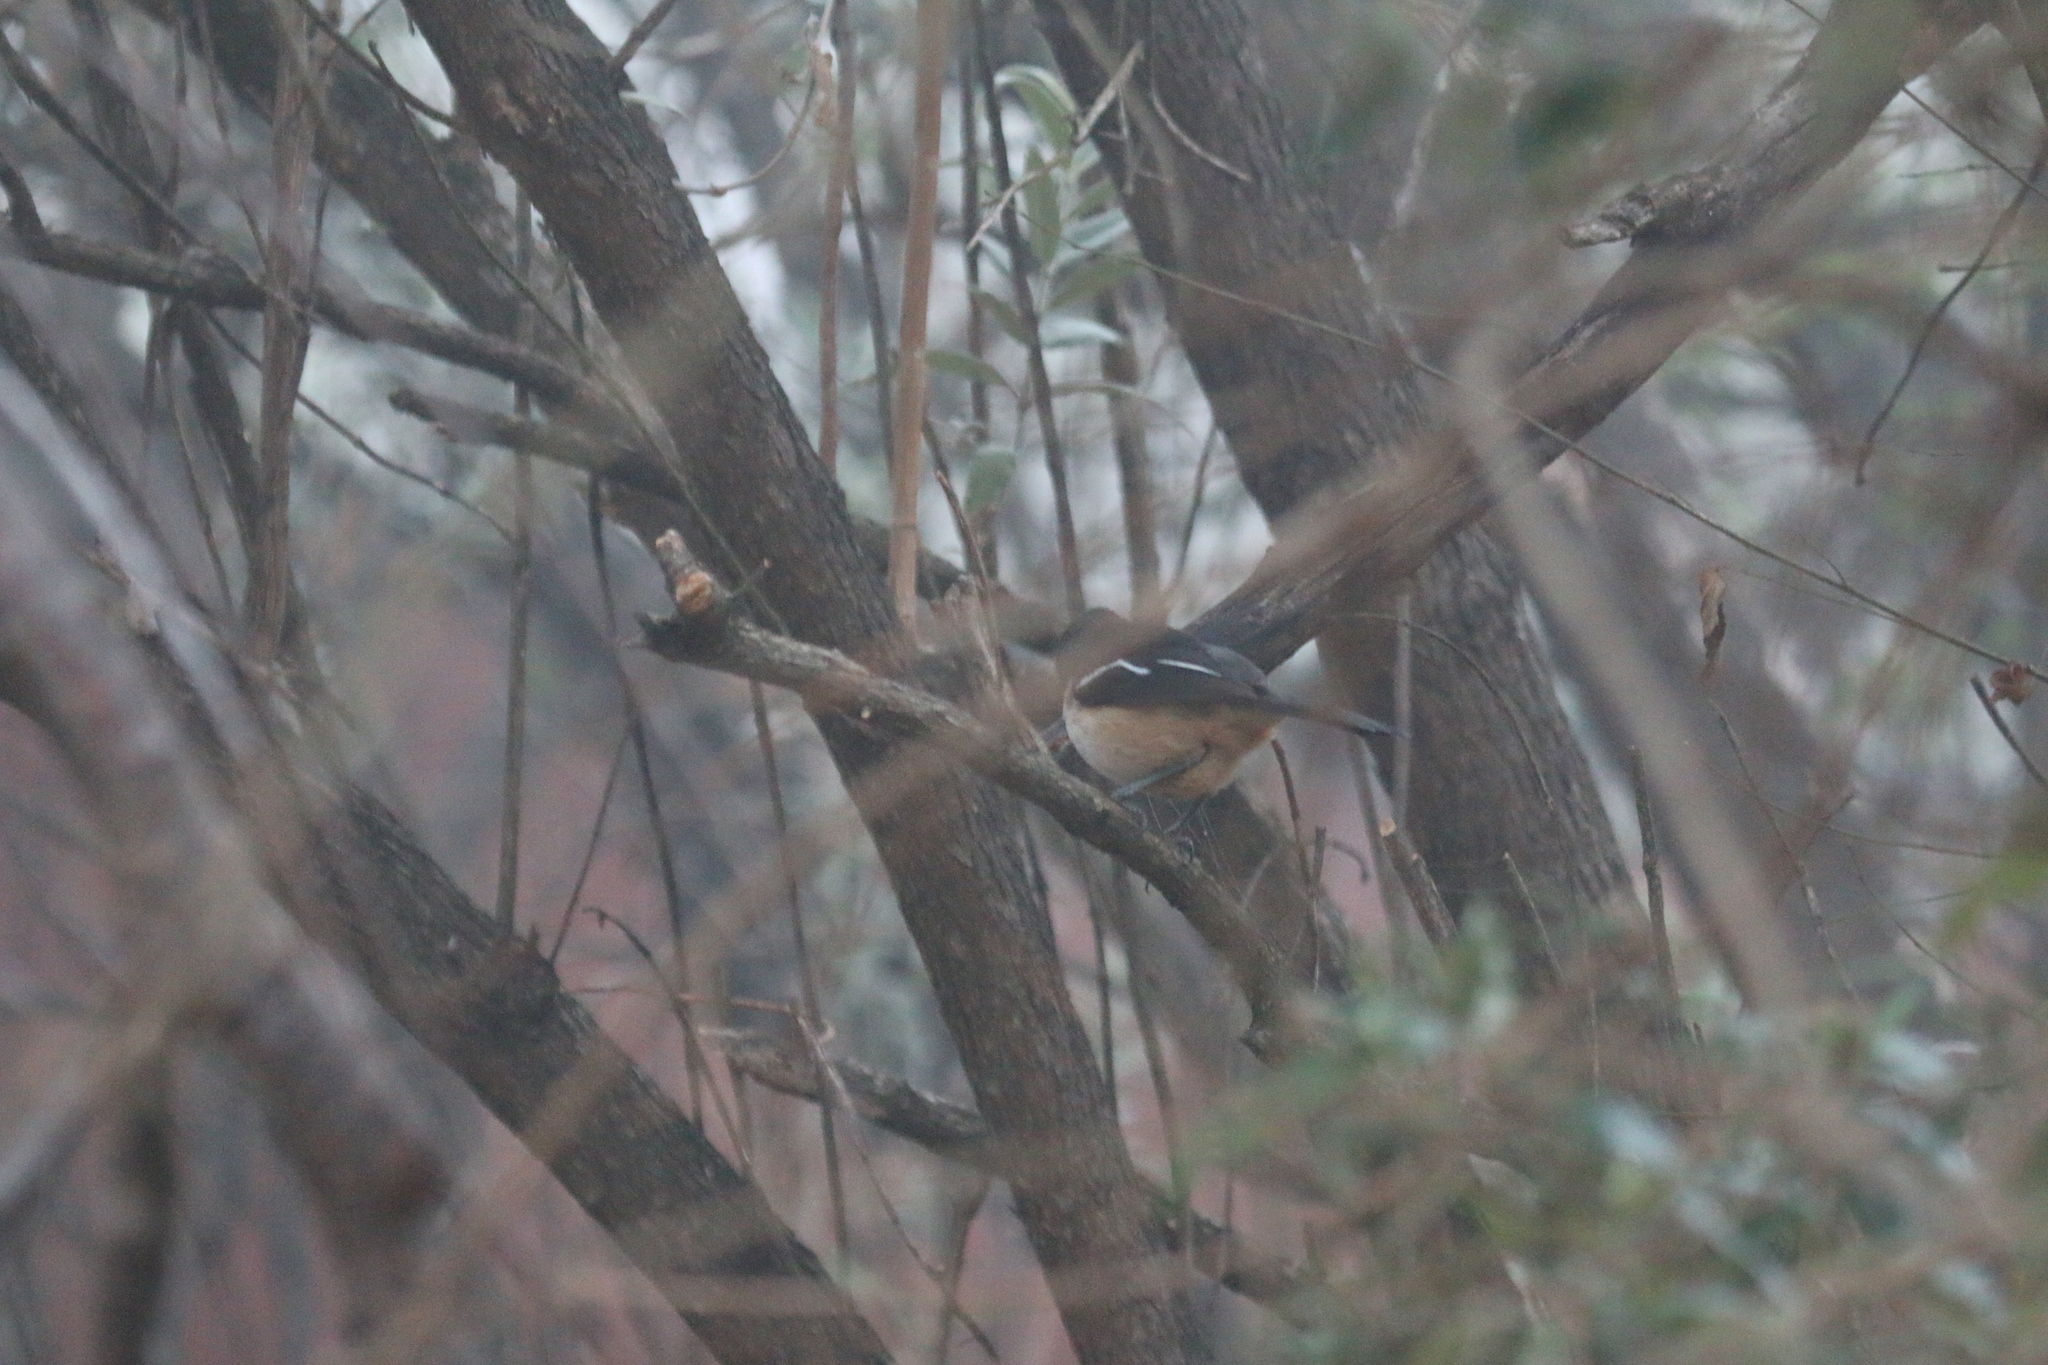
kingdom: Animalia
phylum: Chordata
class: Aves
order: Passeriformes
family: Malaconotidae
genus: Laniarius
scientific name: Laniarius ferrugineus
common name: Southern boubou
